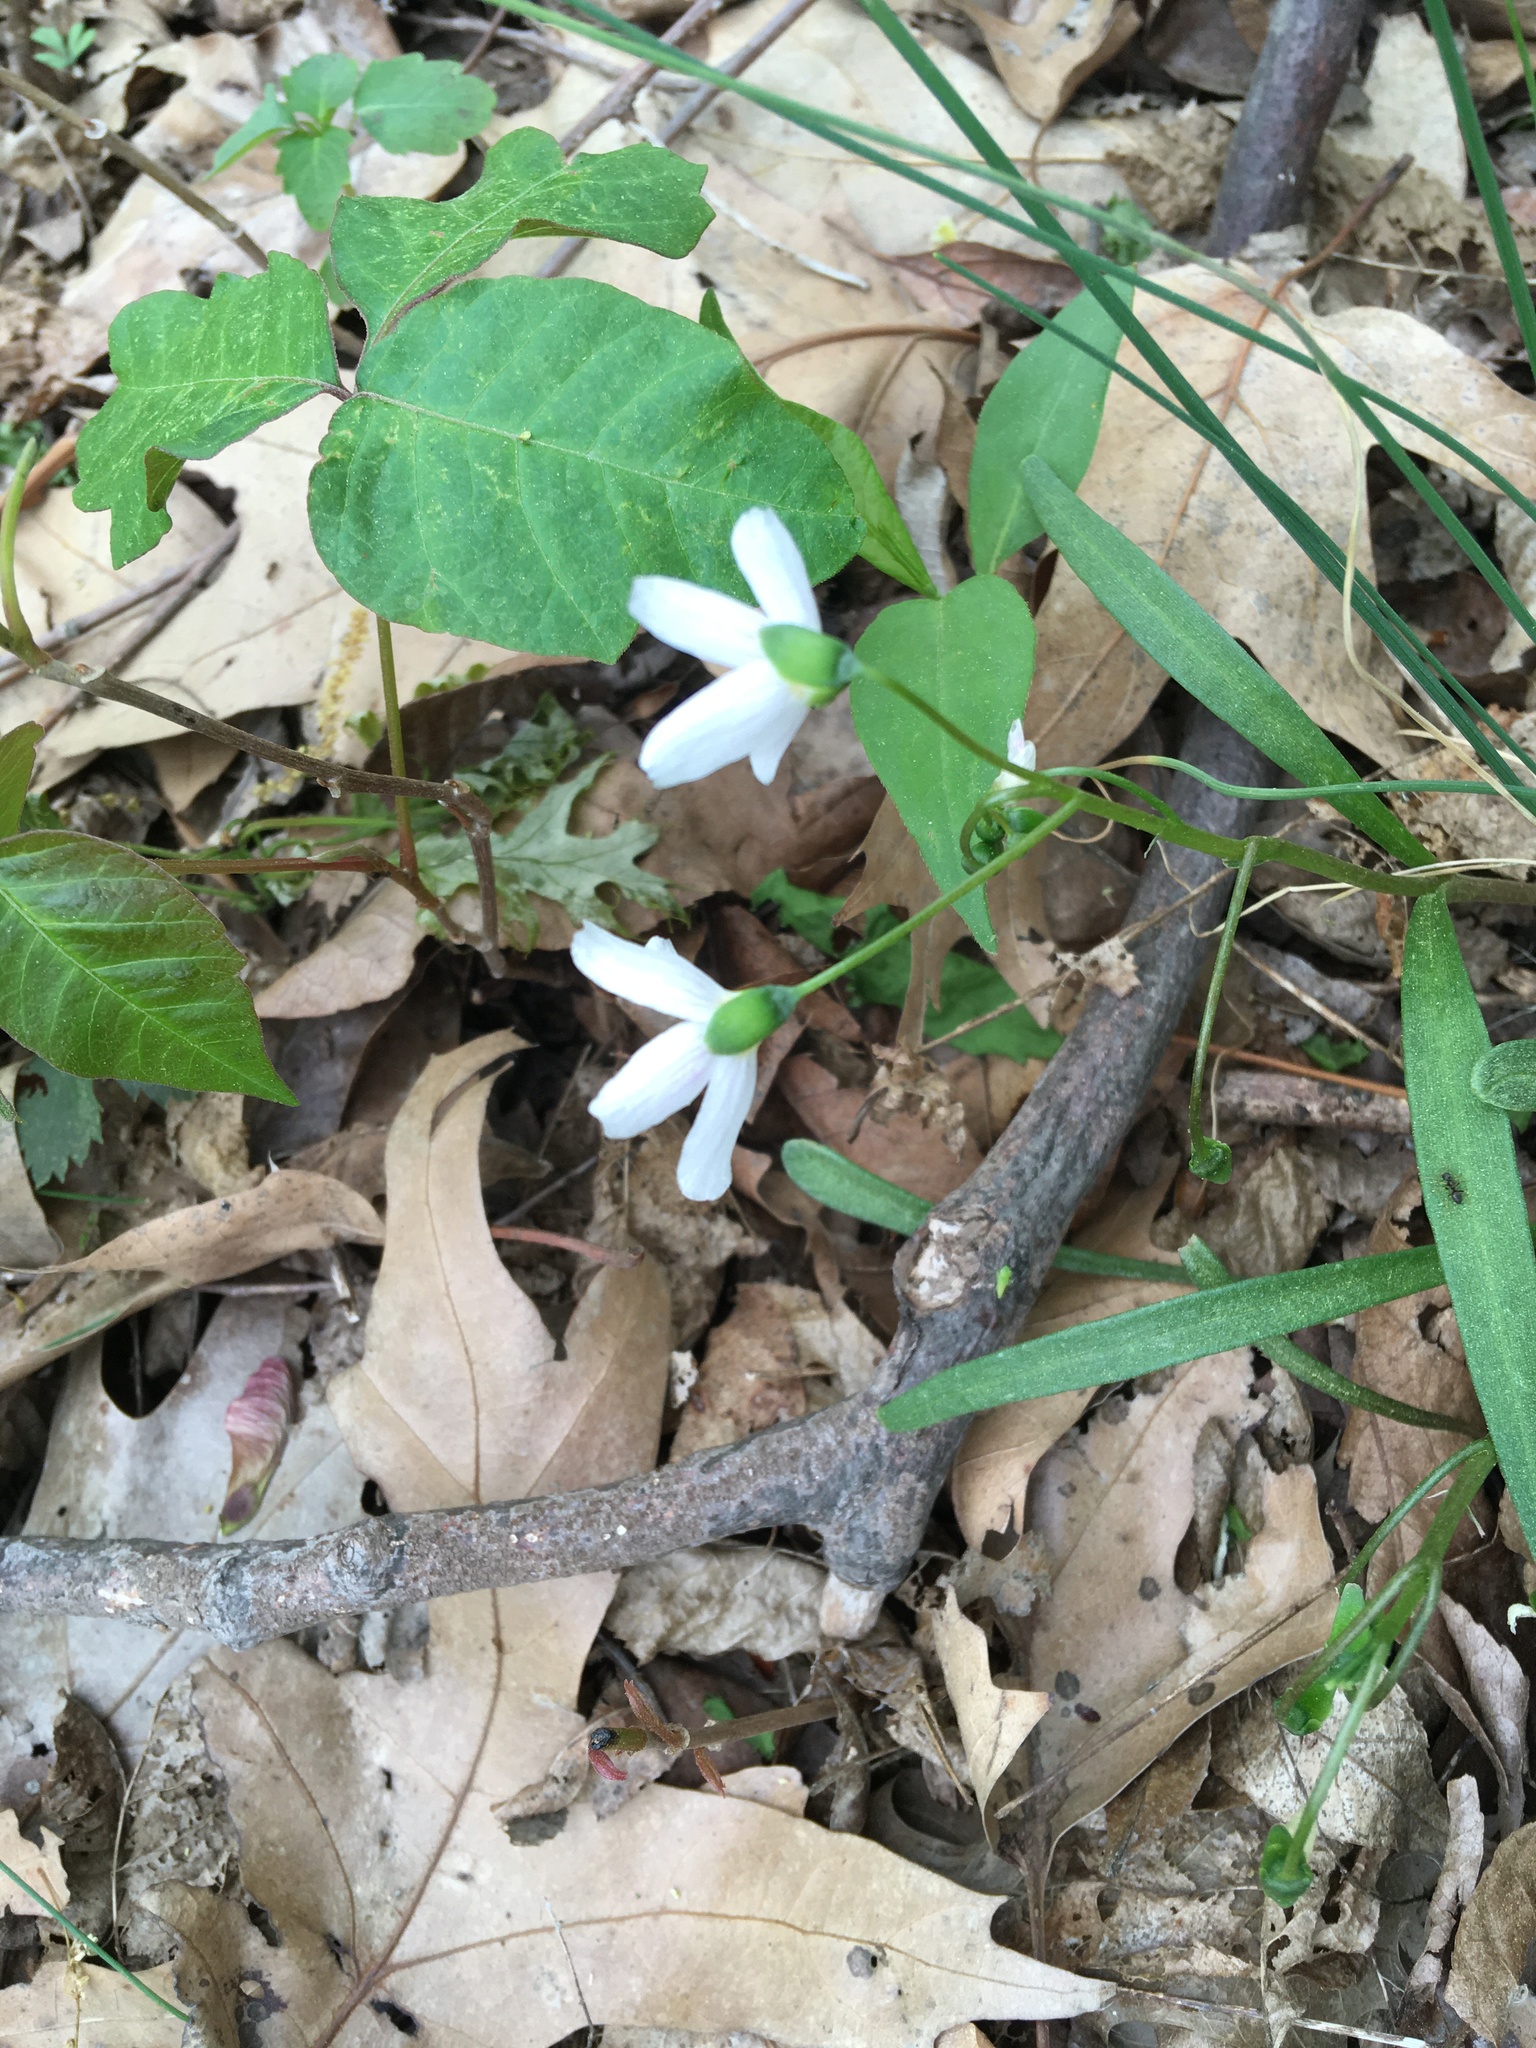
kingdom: Plantae
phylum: Tracheophyta
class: Magnoliopsida
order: Caryophyllales
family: Montiaceae
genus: Claytonia
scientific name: Claytonia virginica
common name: Virginia springbeauty
